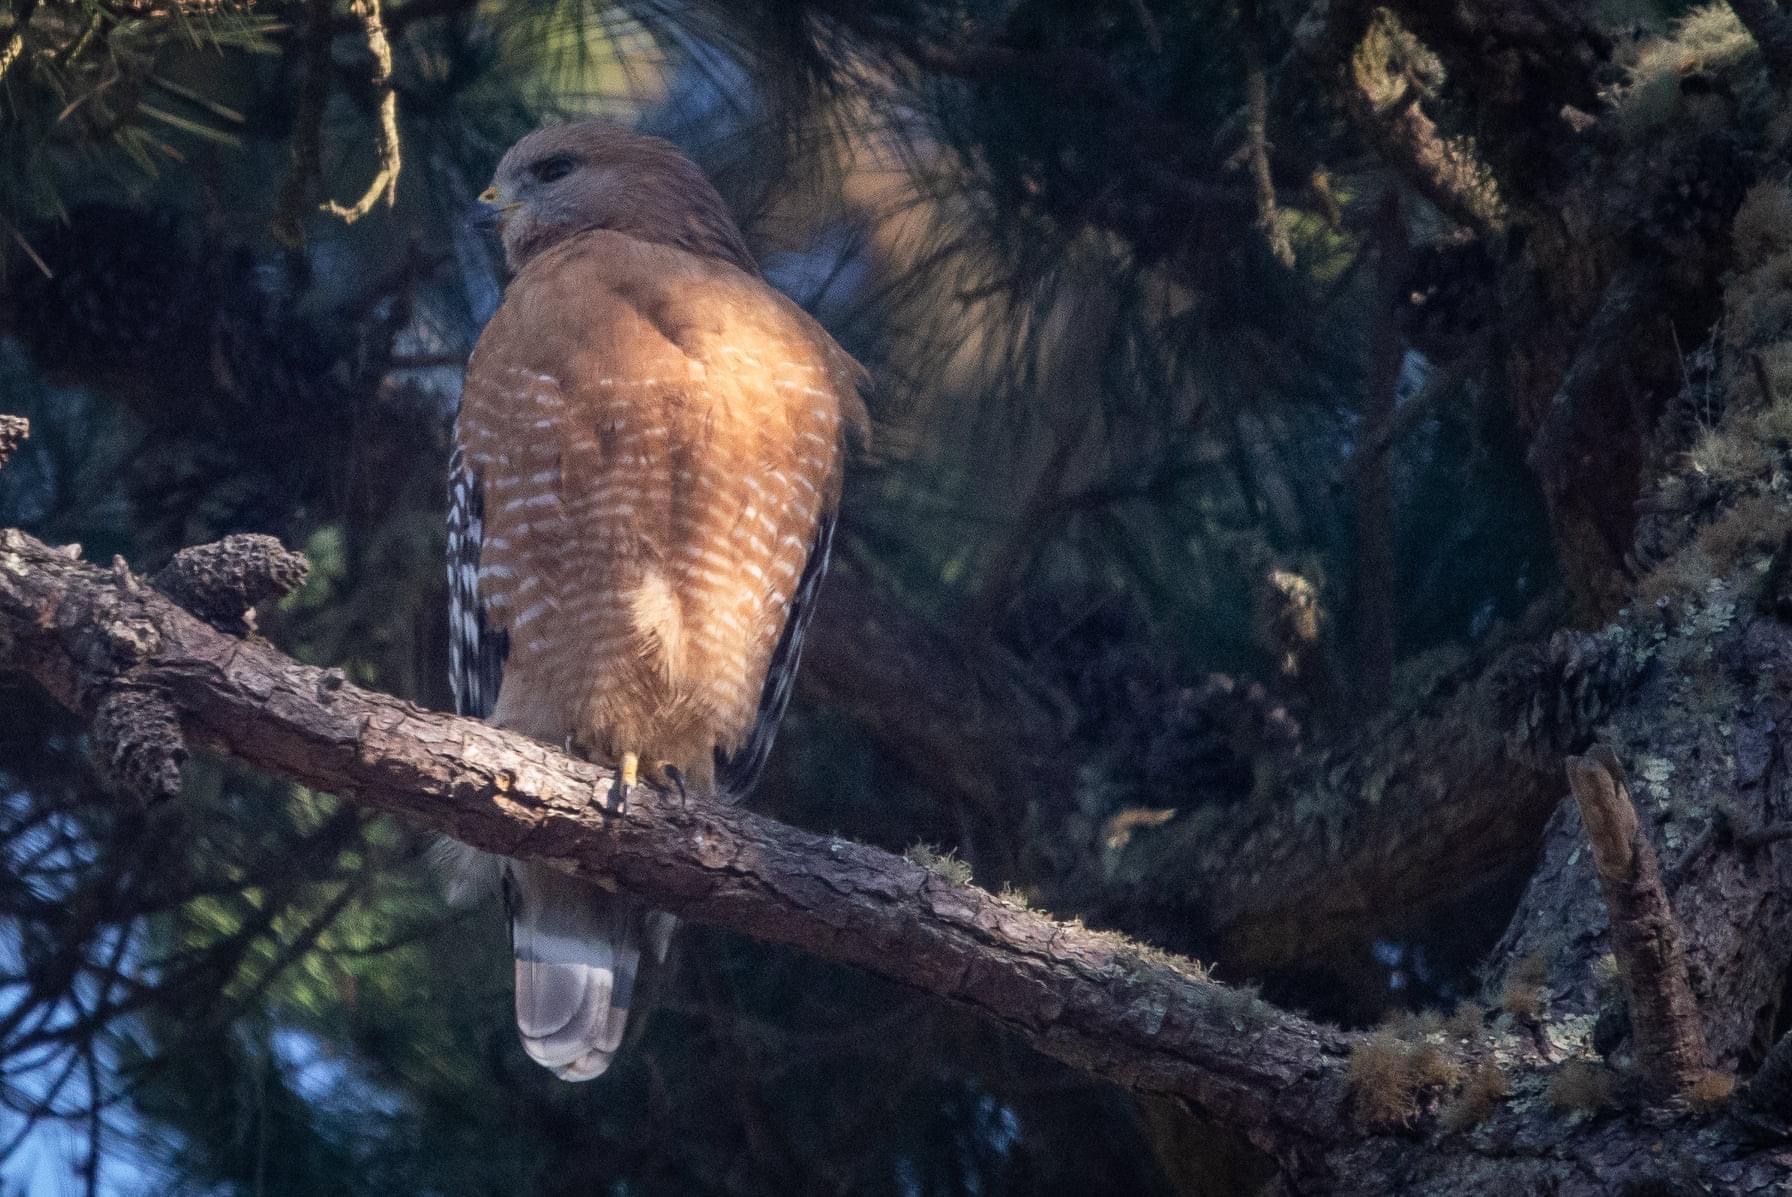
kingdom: Animalia
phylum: Chordata
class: Aves
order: Accipitriformes
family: Accipitridae
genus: Buteo
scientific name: Buteo lineatus
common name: Red-shouldered hawk
